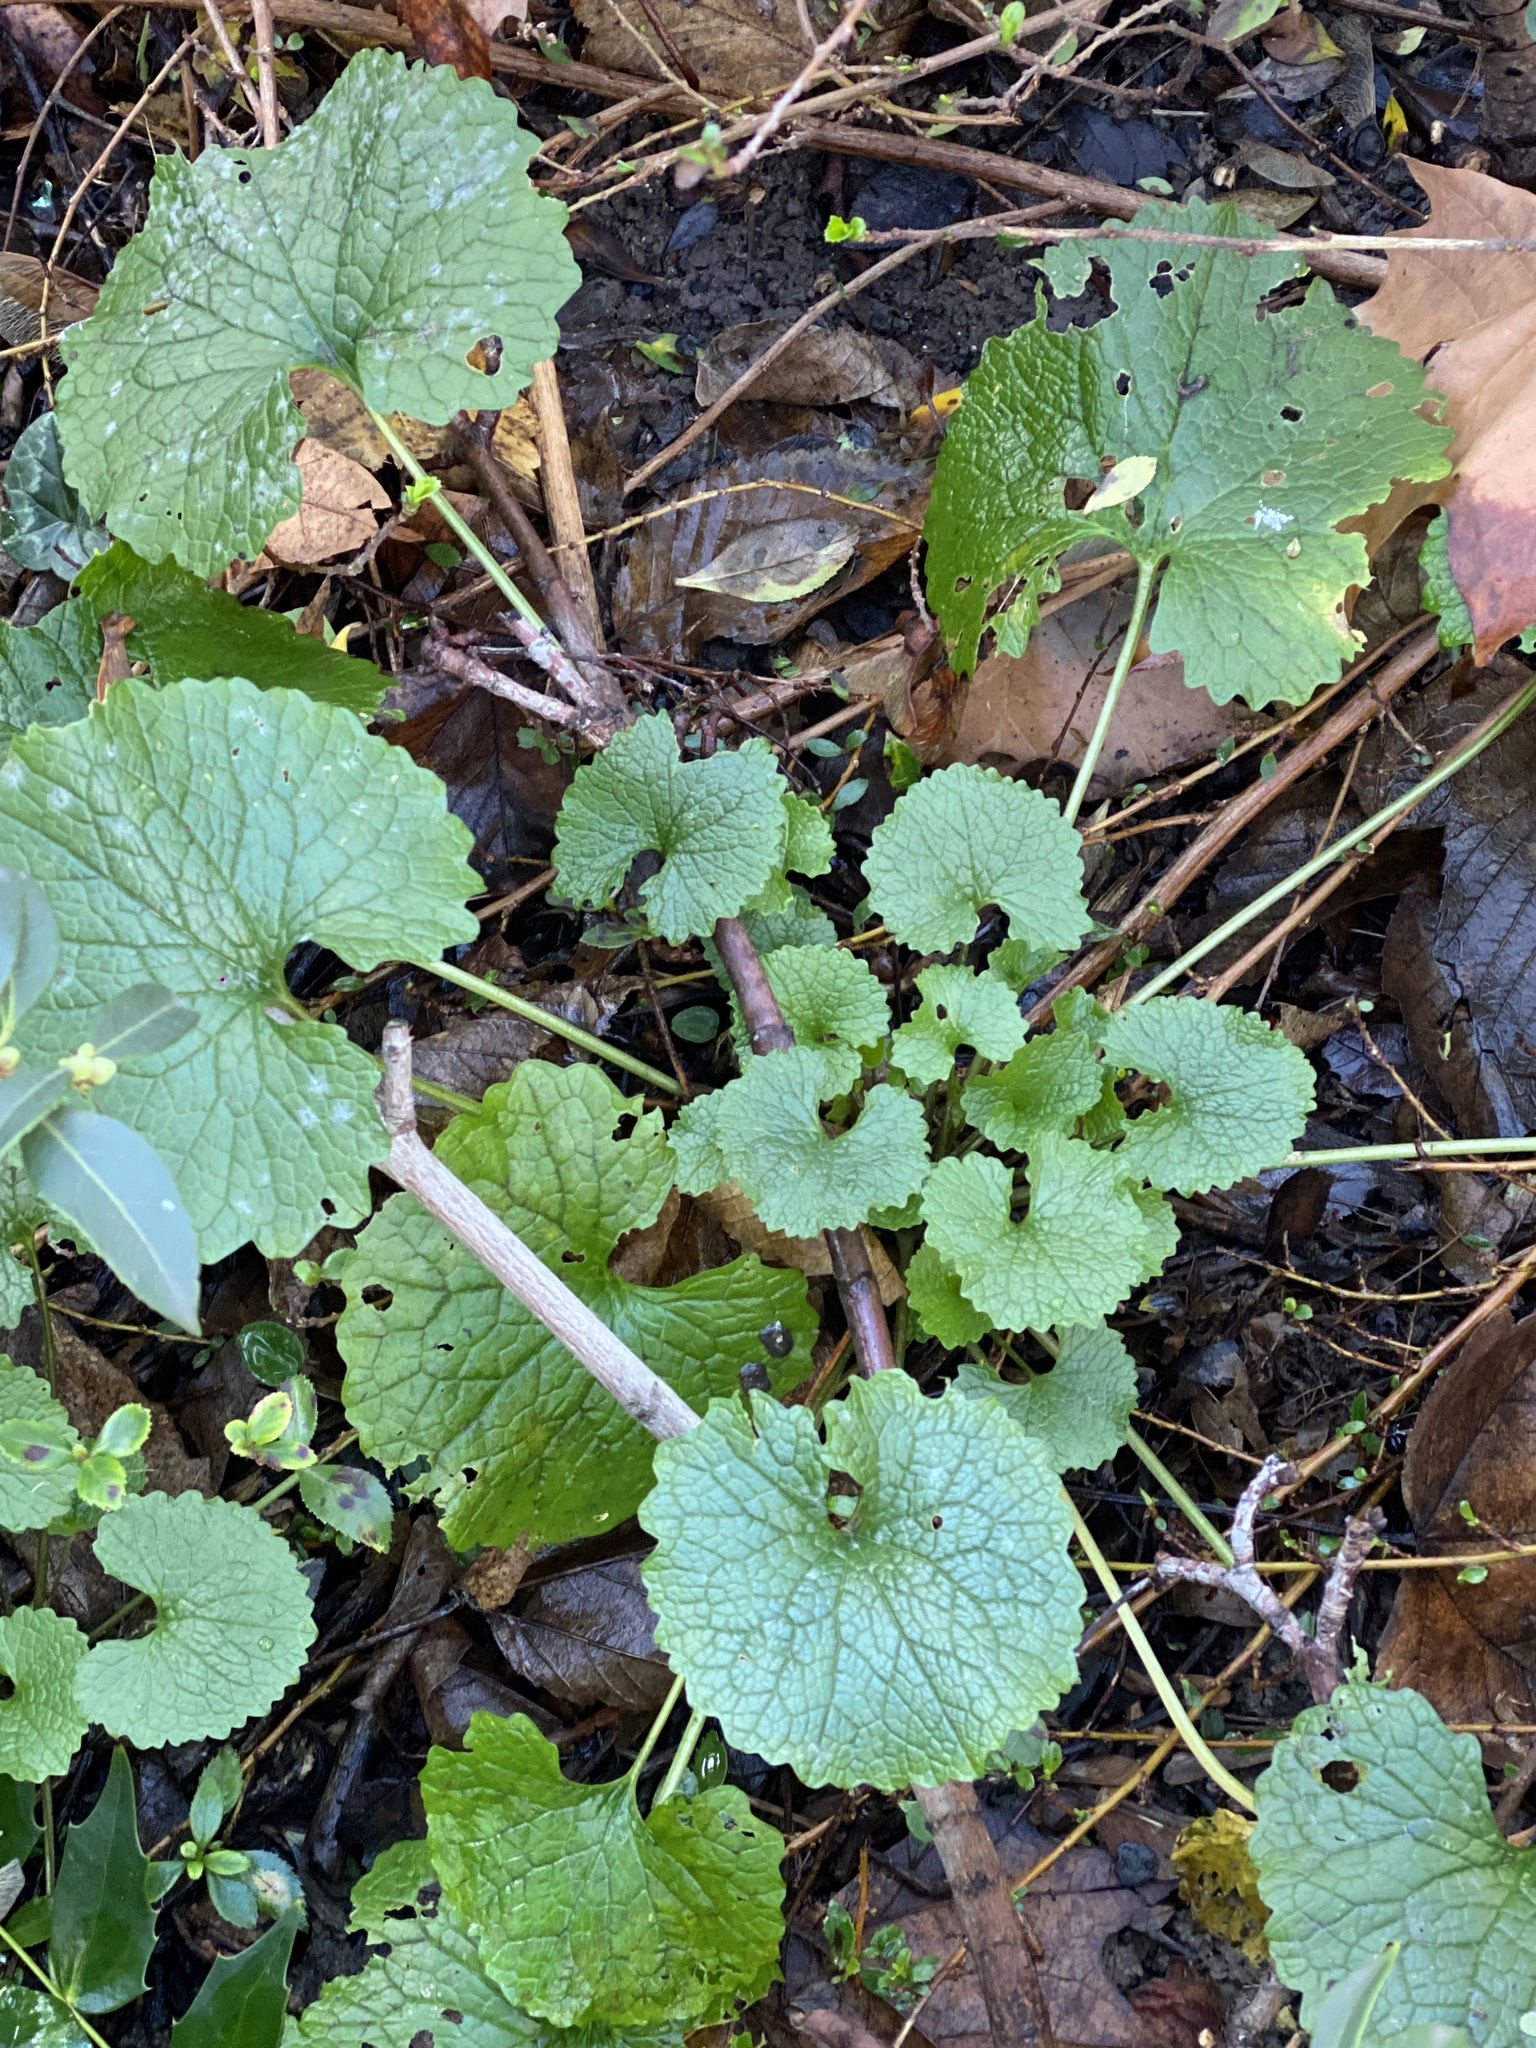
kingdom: Plantae
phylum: Tracheophyta
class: Magnoliopsida
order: Brassicales
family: Brassicaceae
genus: Alliaria
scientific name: Alliaria petiolata
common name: Garlic mustard
